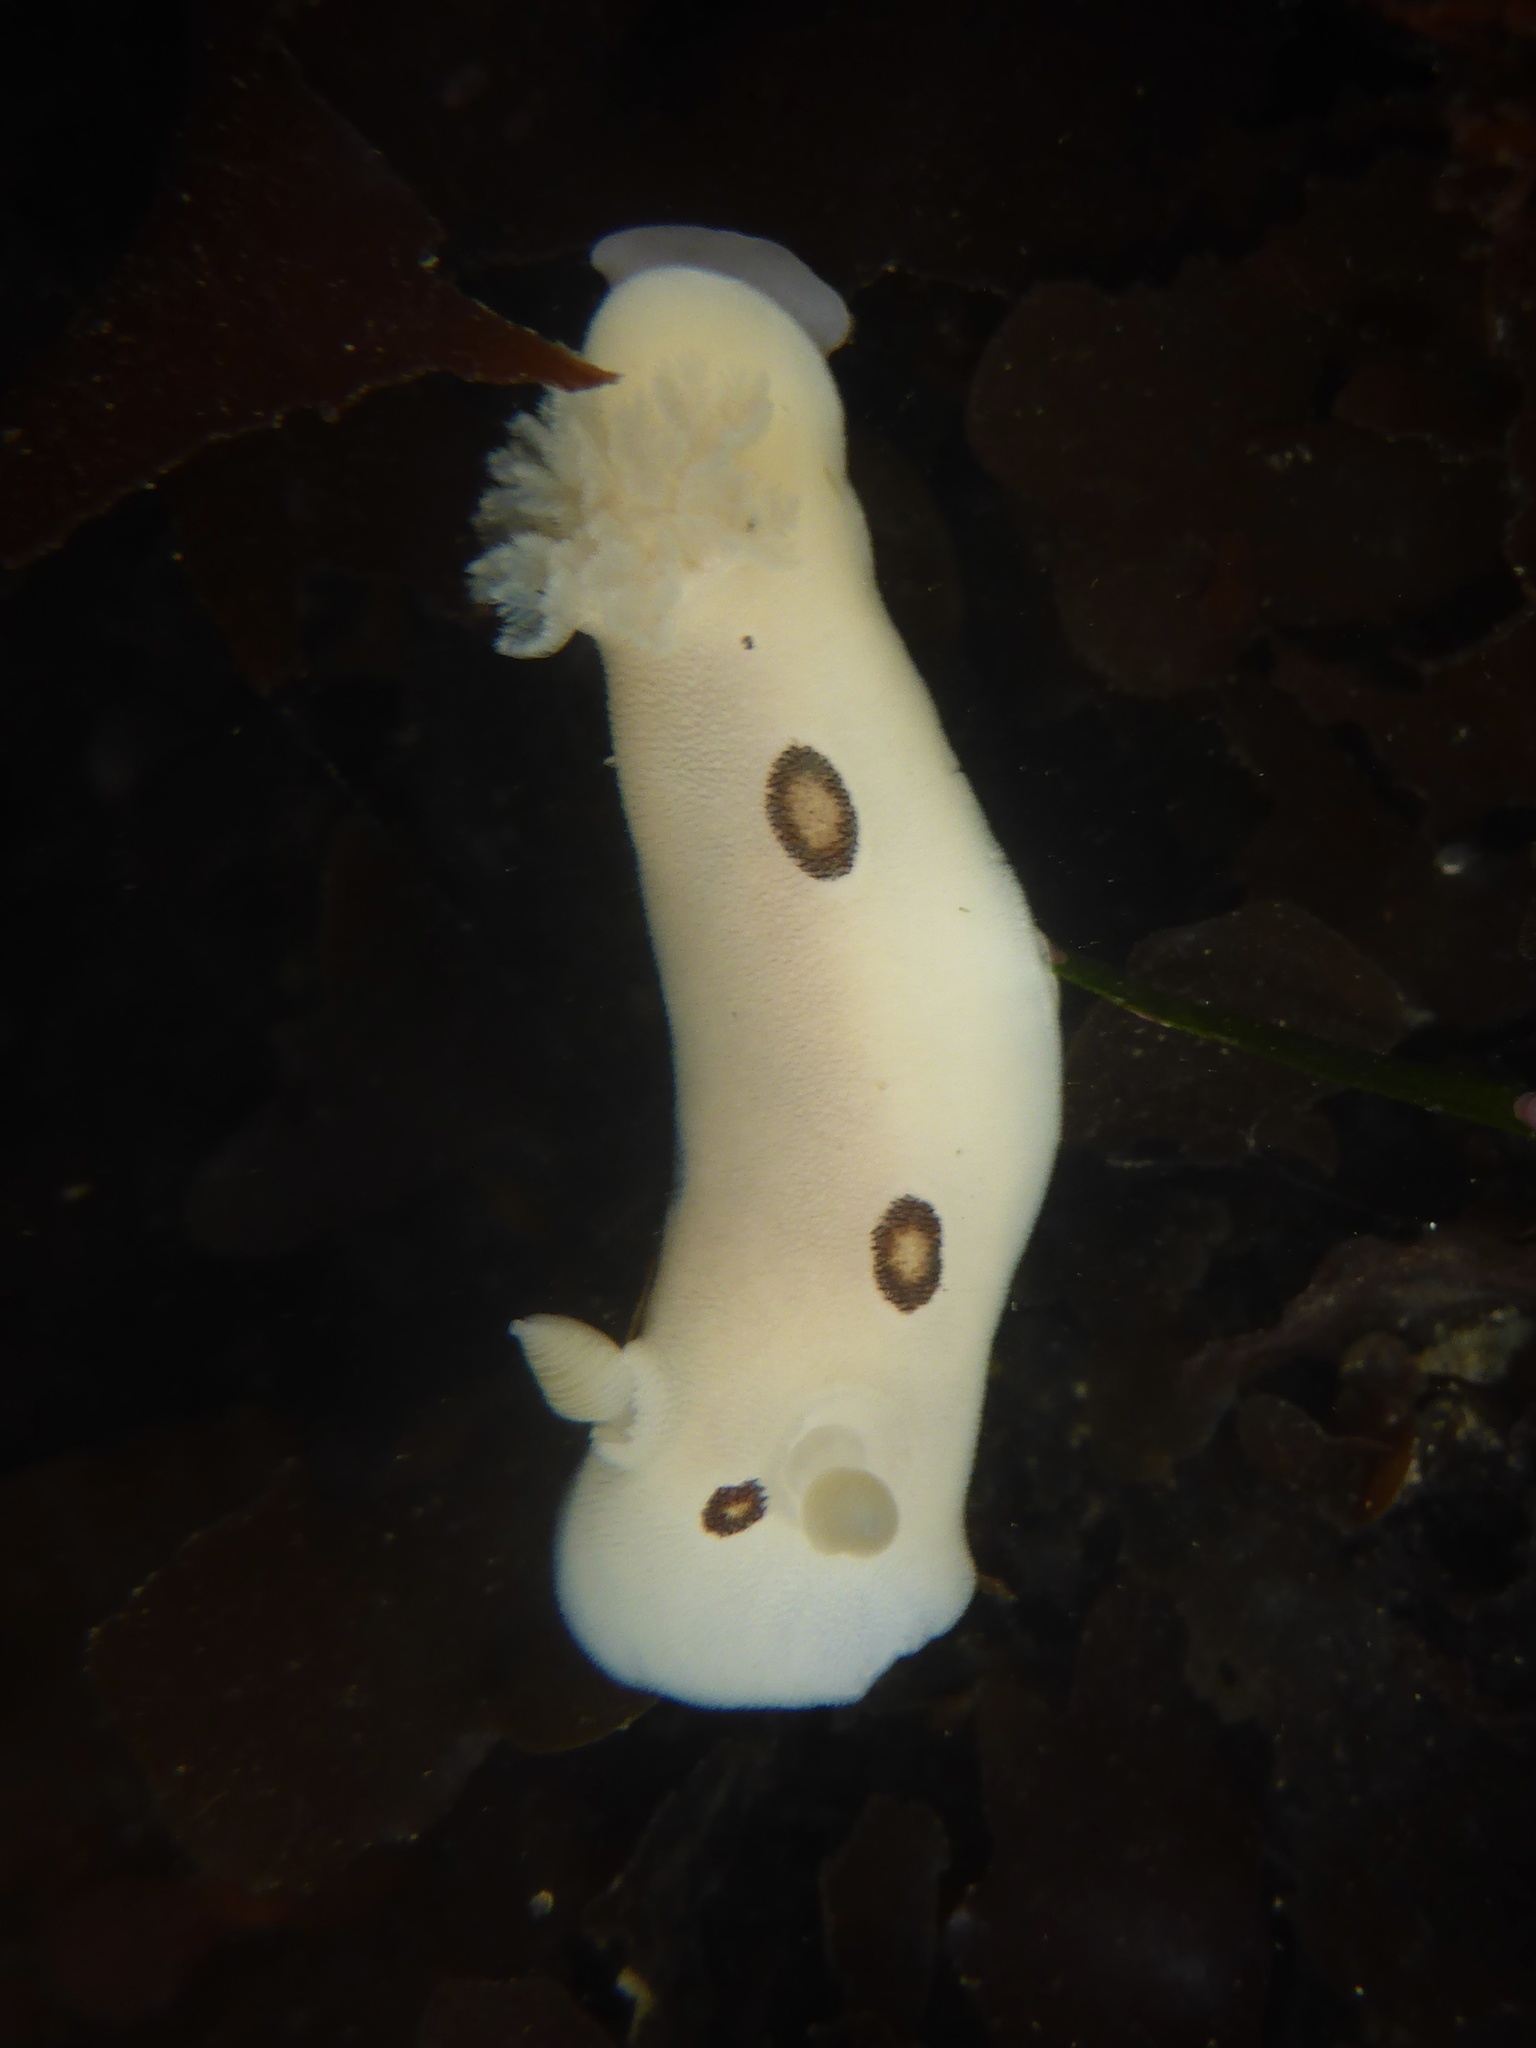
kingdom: Animalia
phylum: Mollusca
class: Gastropoda
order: Nudibranchia
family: Discodorididae
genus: Diaulula
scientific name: Diaulula sandiegensis
